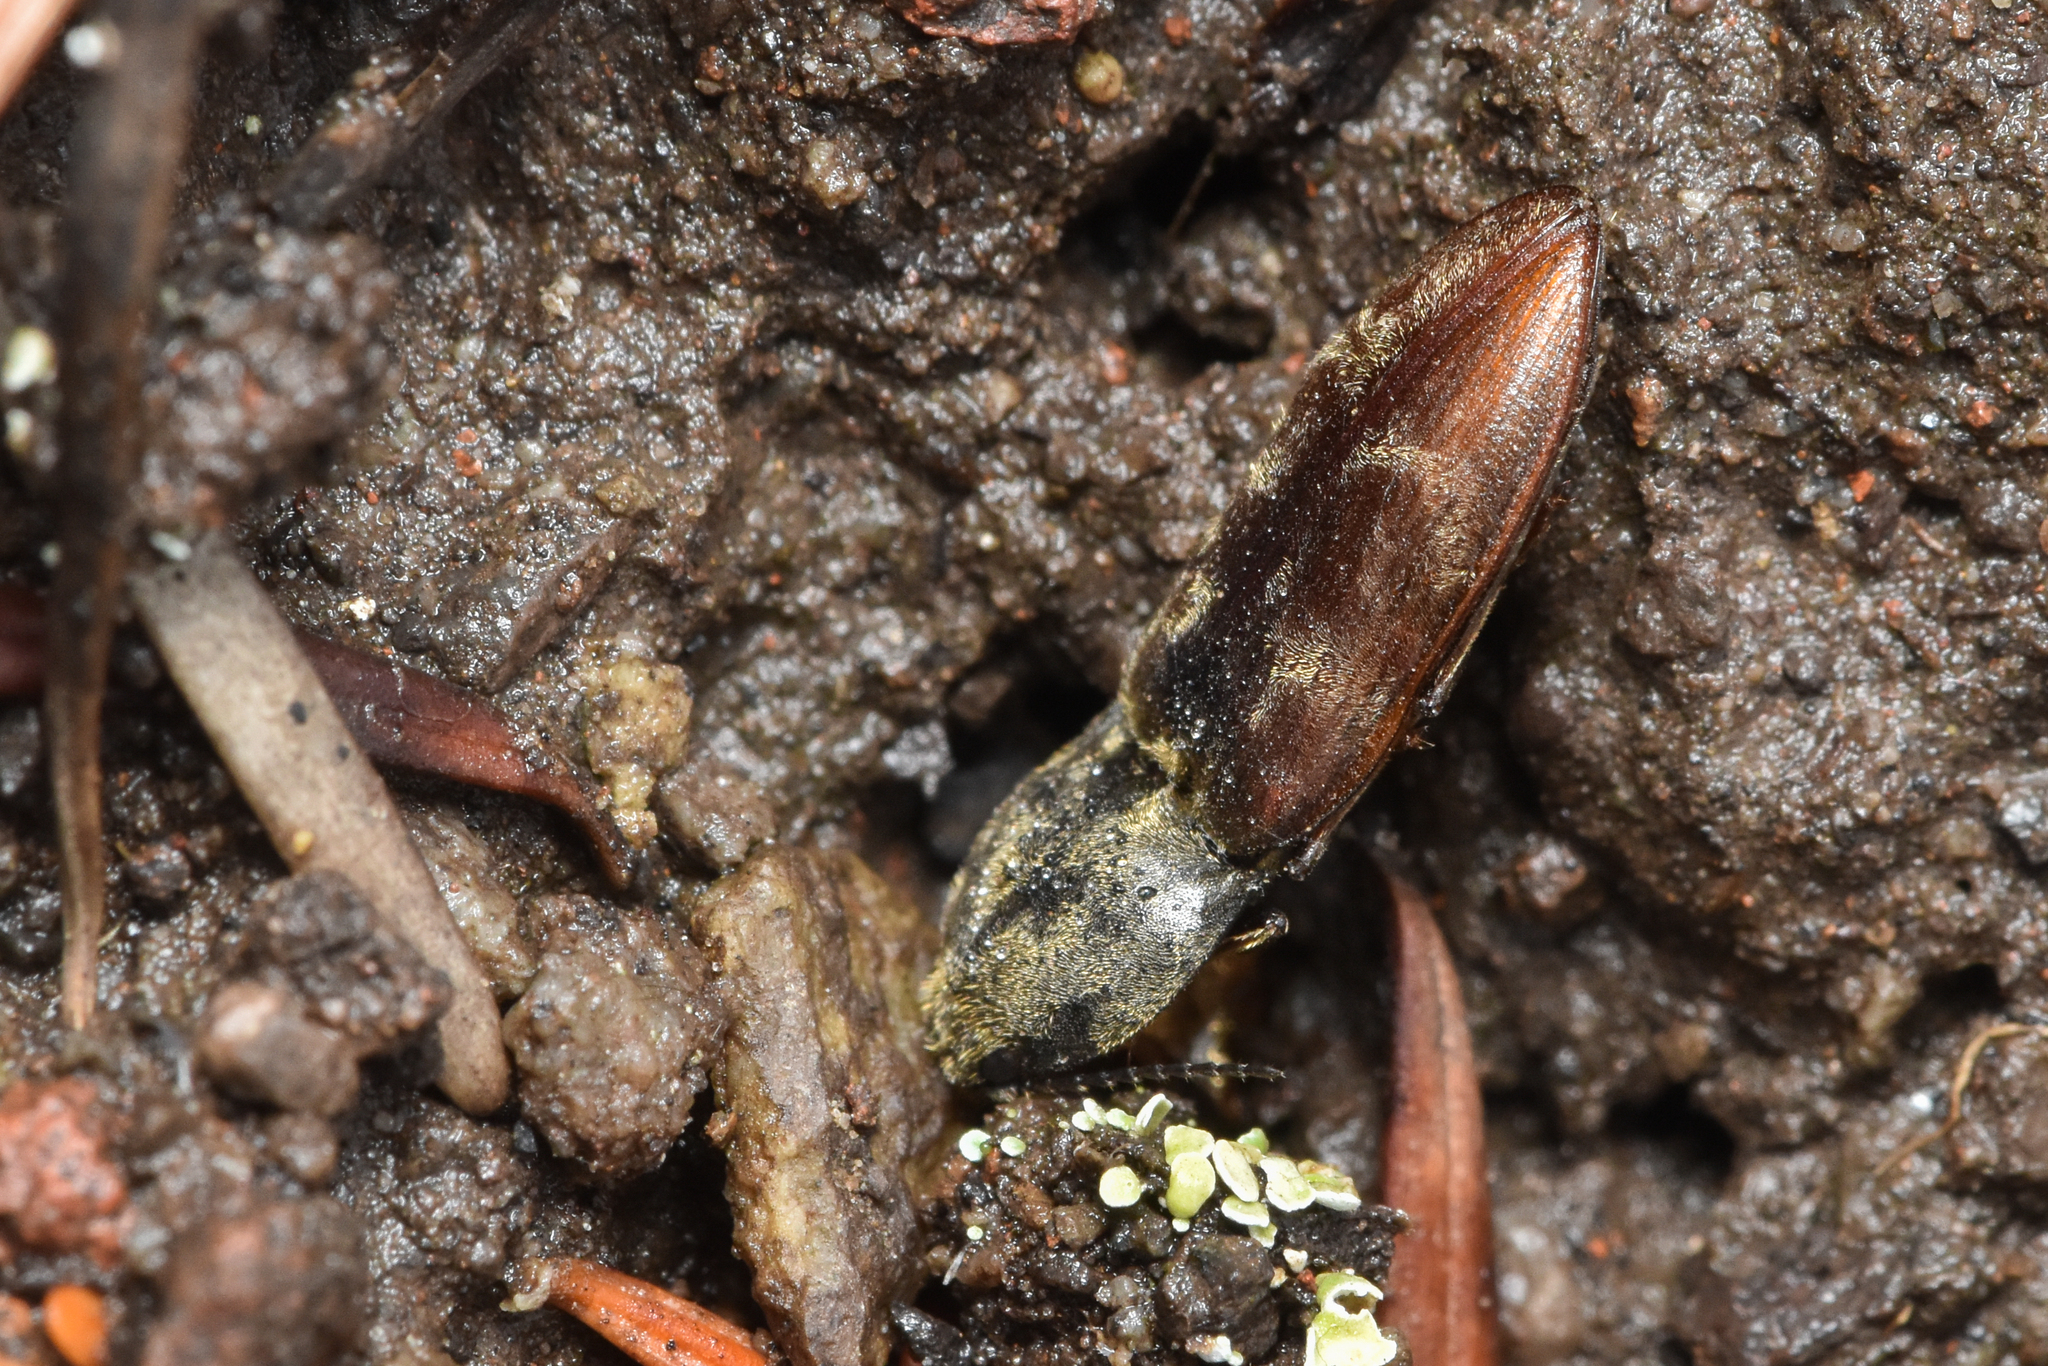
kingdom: Animalia
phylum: Arthropoda
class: Insecta
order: Coleoptera
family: Elateridae
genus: Prosternon
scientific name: Prosternon bombycinum
